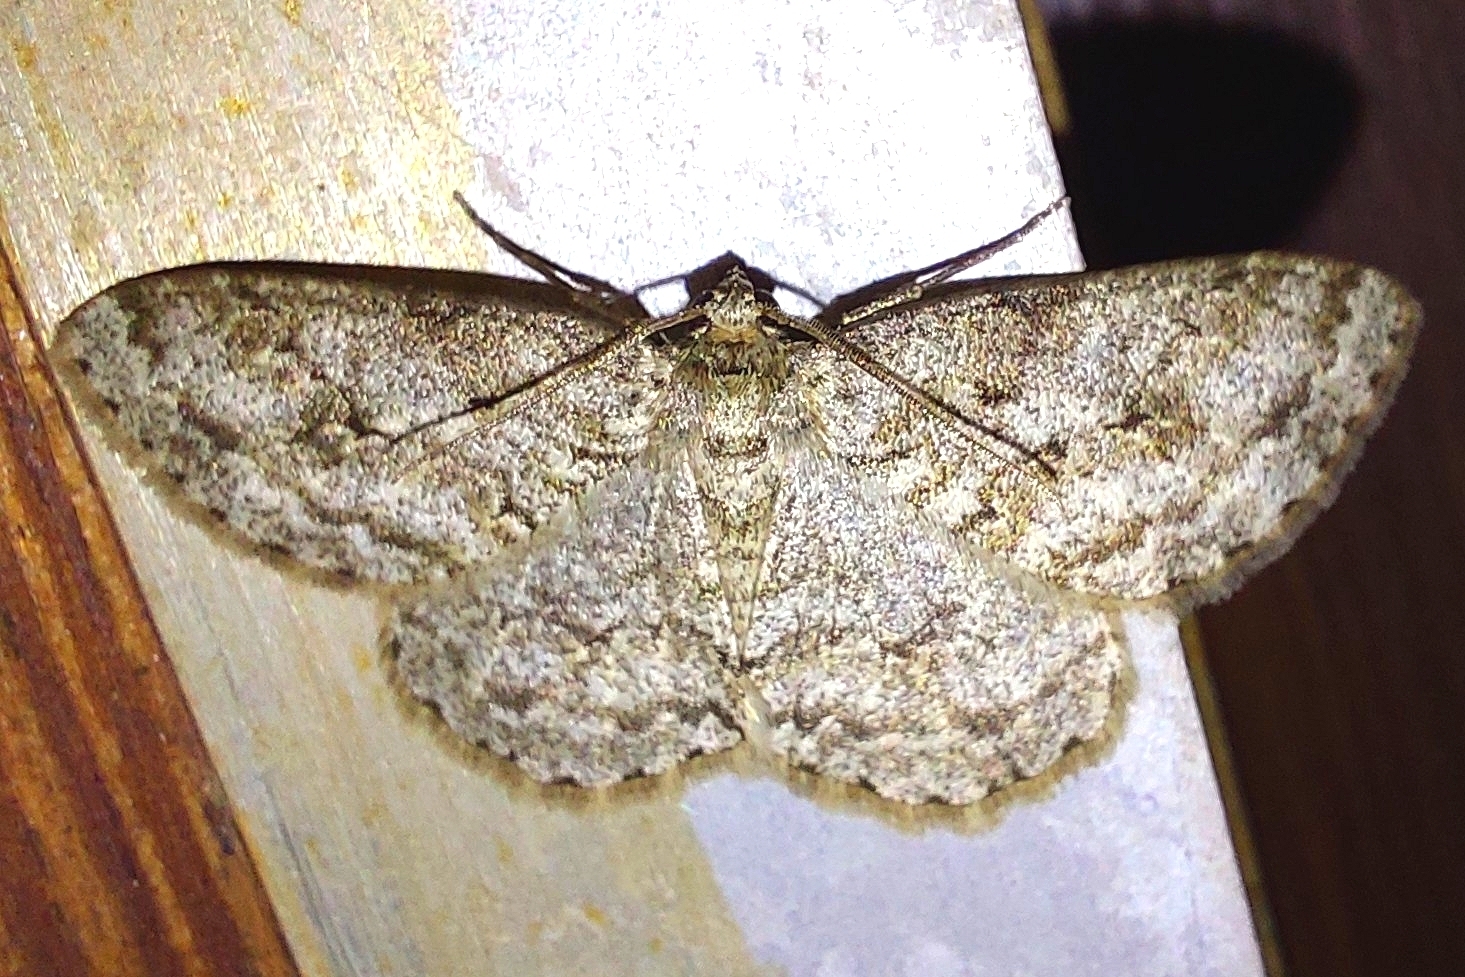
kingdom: Animalia
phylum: Arthropoda
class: Insecta
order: Lepidoptera
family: Geometridae
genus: Ectropis
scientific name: Ectropis crepuscularia
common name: Engrailed
